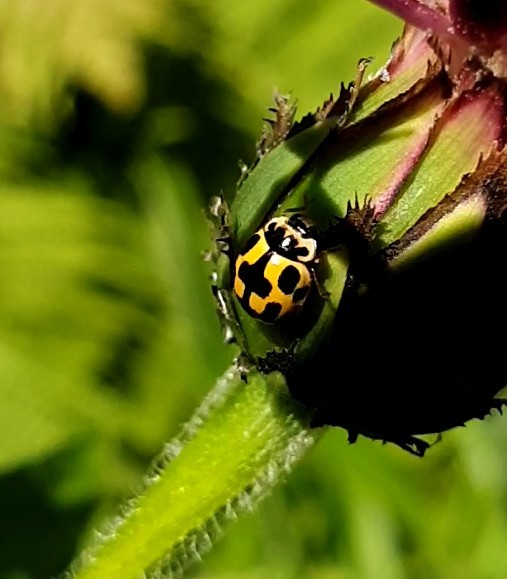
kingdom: Animalia
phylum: Arthropoda
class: Insecta
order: Coleoptera
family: Coccinellidae
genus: Propylaea
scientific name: Propylaea quatuordecimpunctata
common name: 14-spotted ladybird beetle
